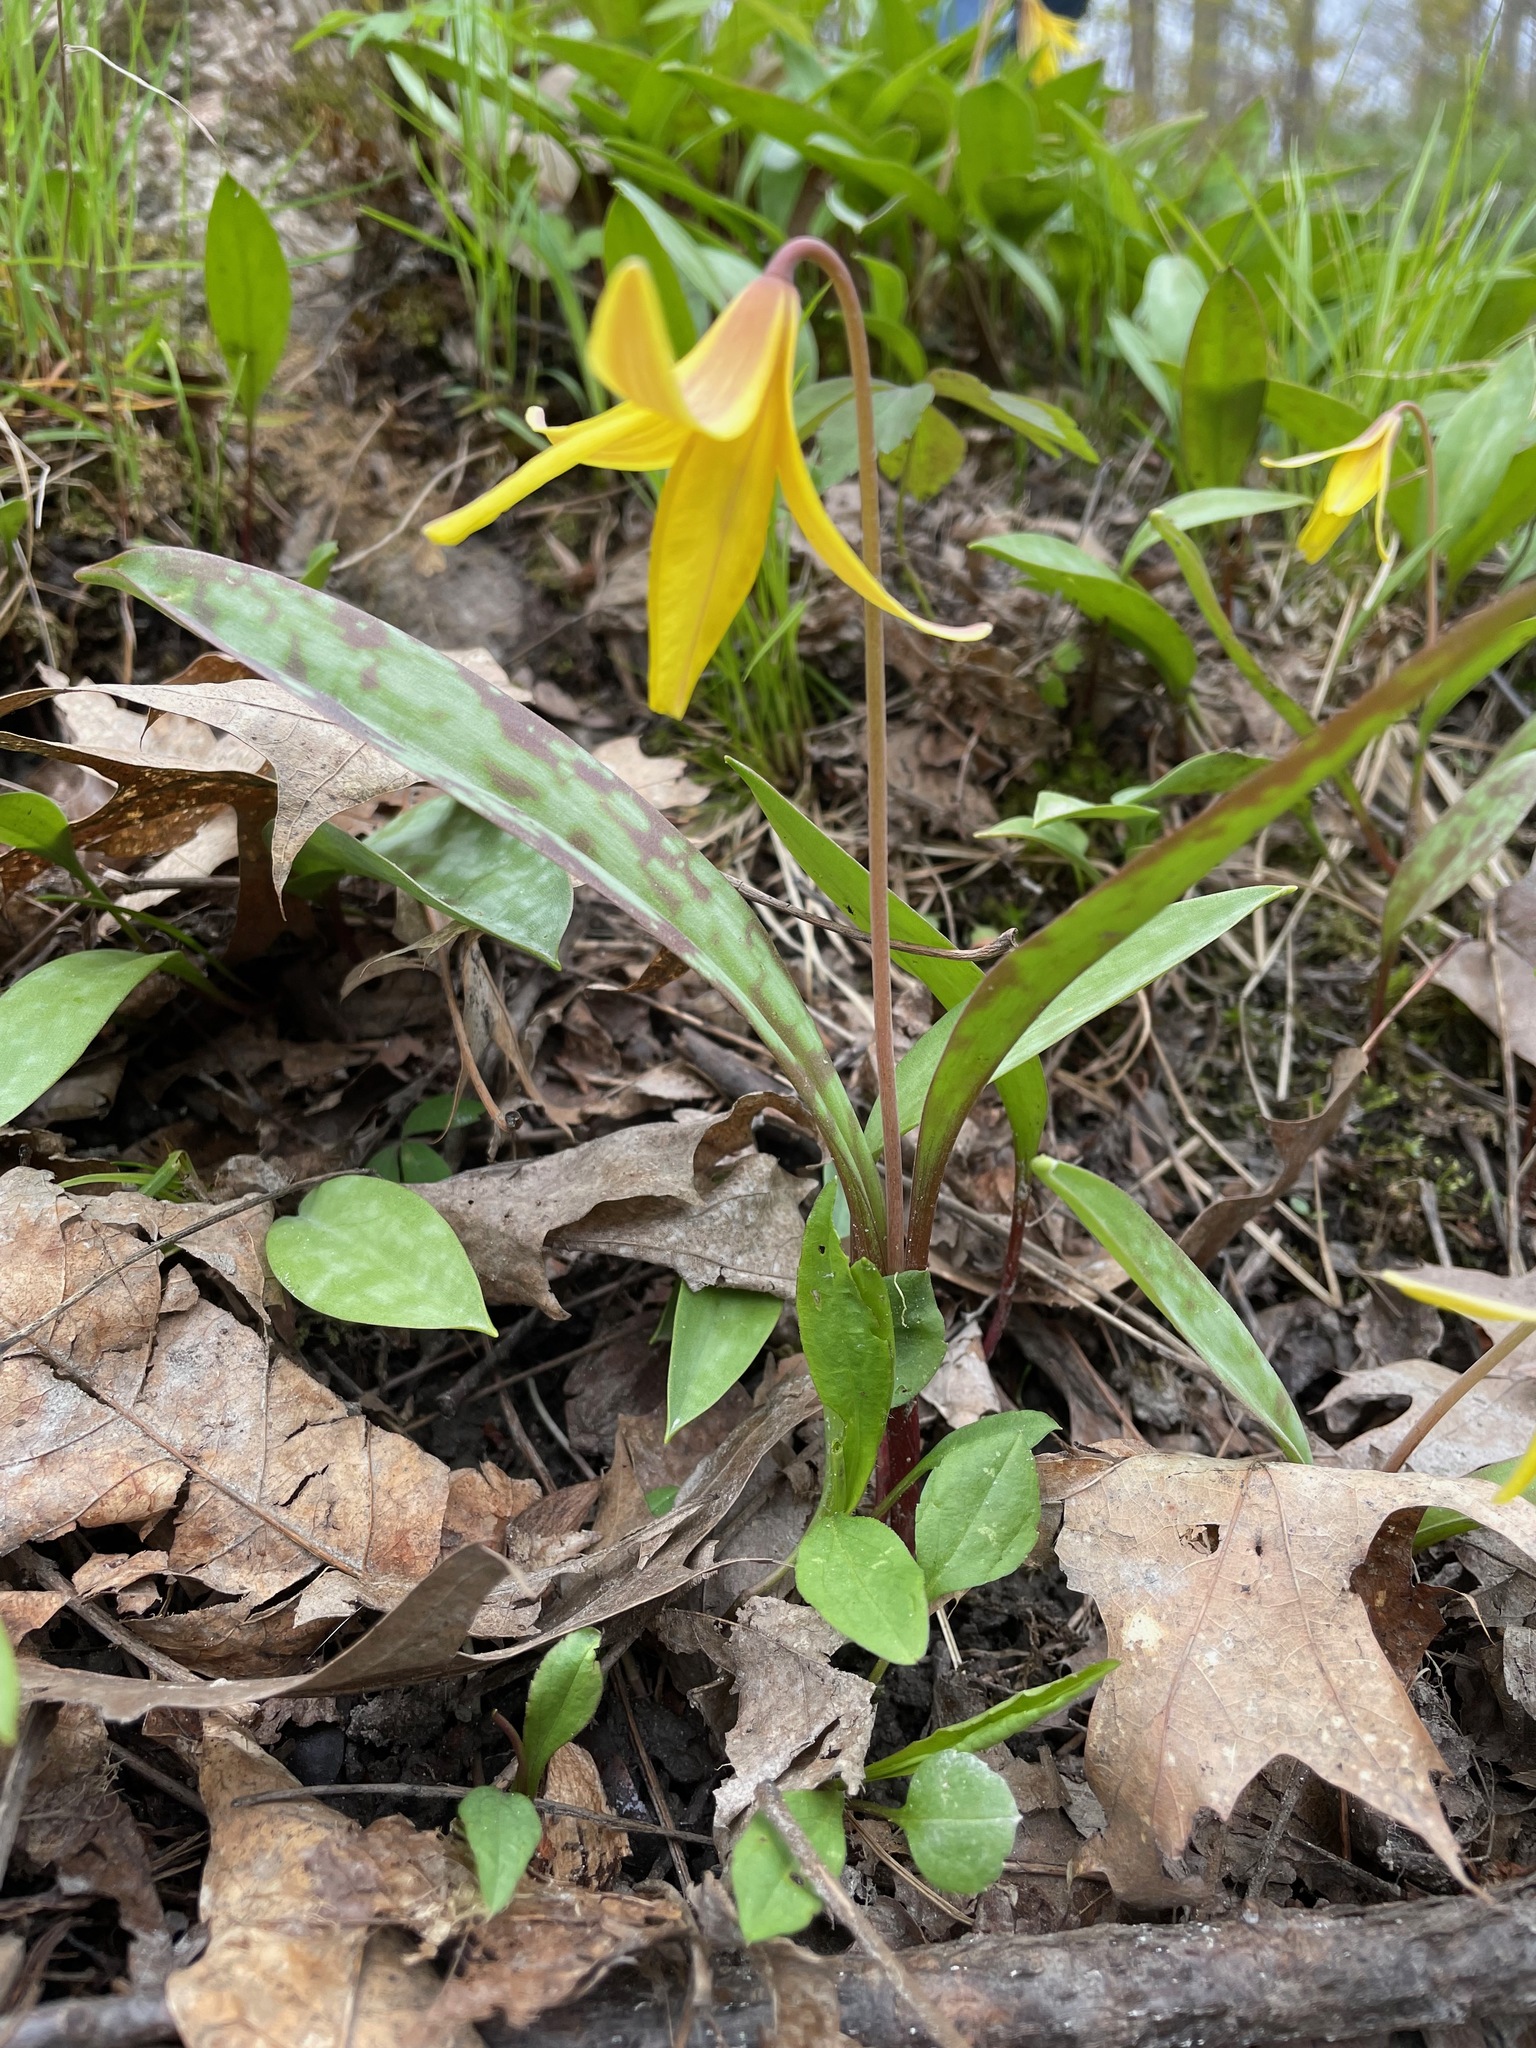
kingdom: Plantae
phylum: Tracheophyta
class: Liliopsida
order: Liliales
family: Liliaceae
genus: Erythronium
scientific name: Erythronium americanum
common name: Yellow adder's-tongue
